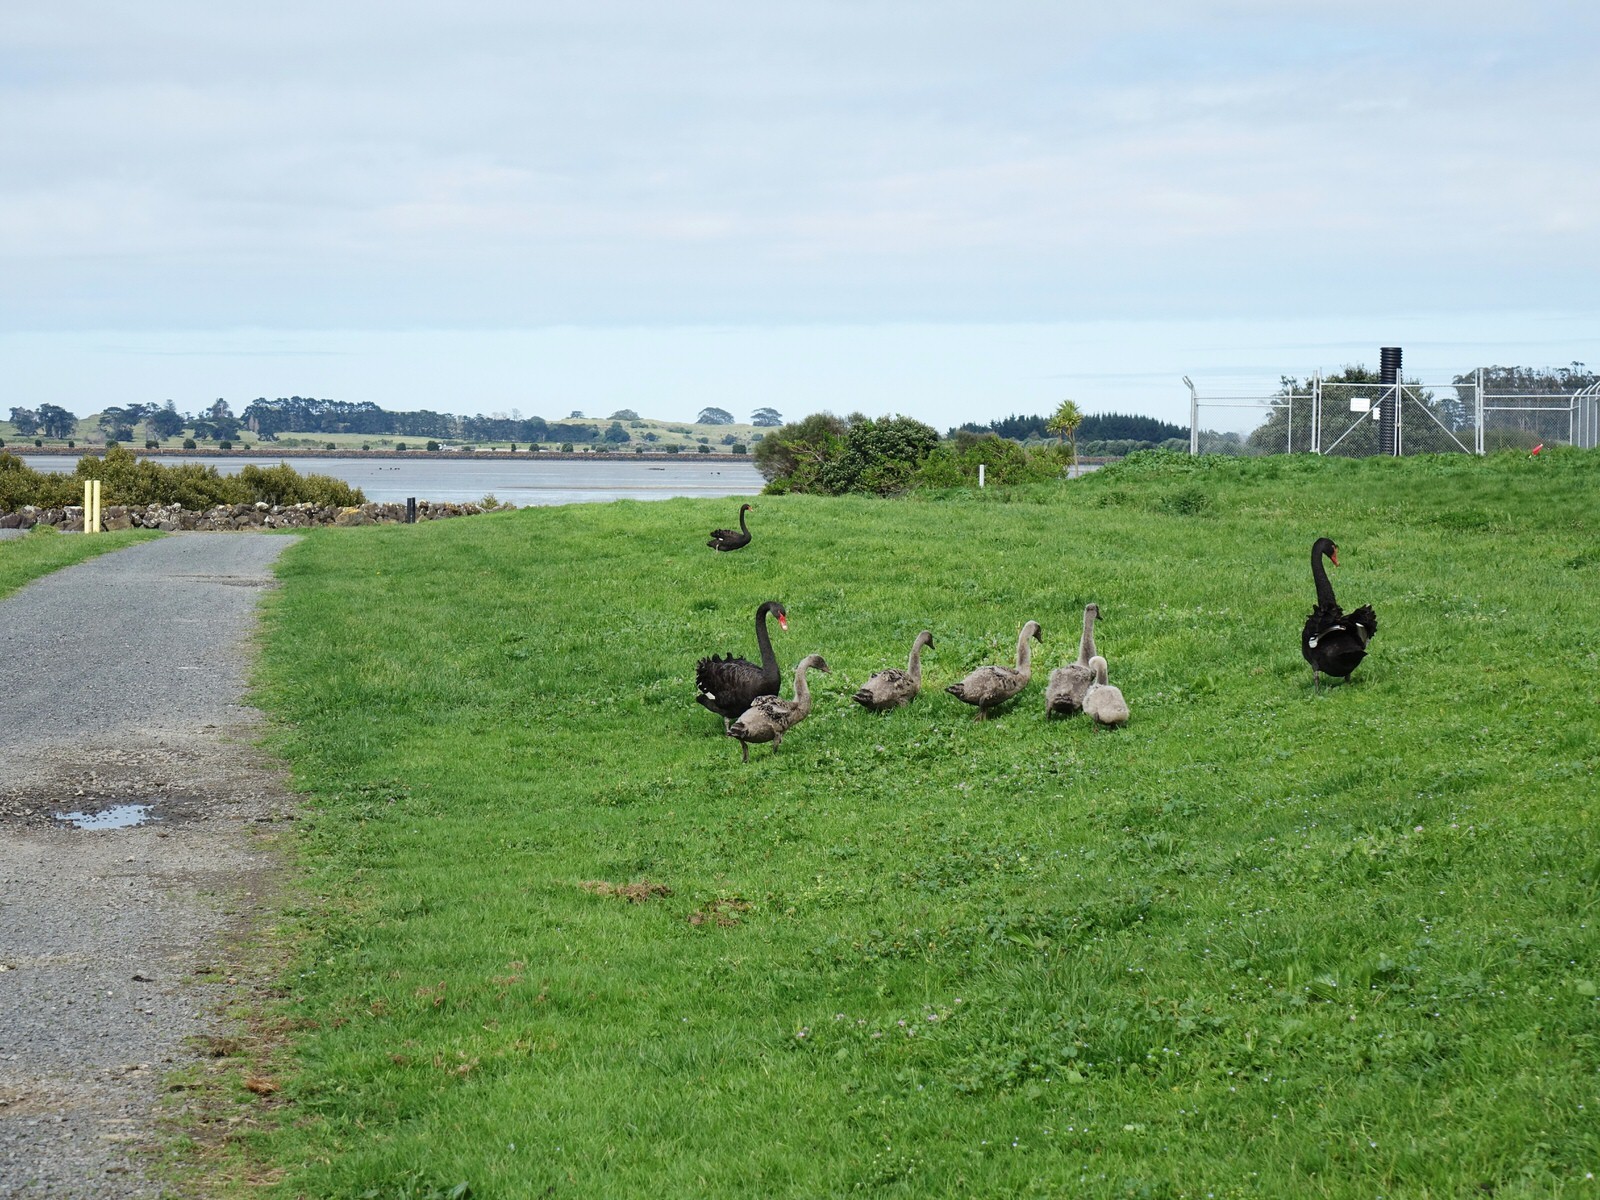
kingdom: Animalia
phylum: Chordata
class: Aves
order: Anseriformes
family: Anatidae
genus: Cygnus
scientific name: Cygnus atratus
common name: Black swan
